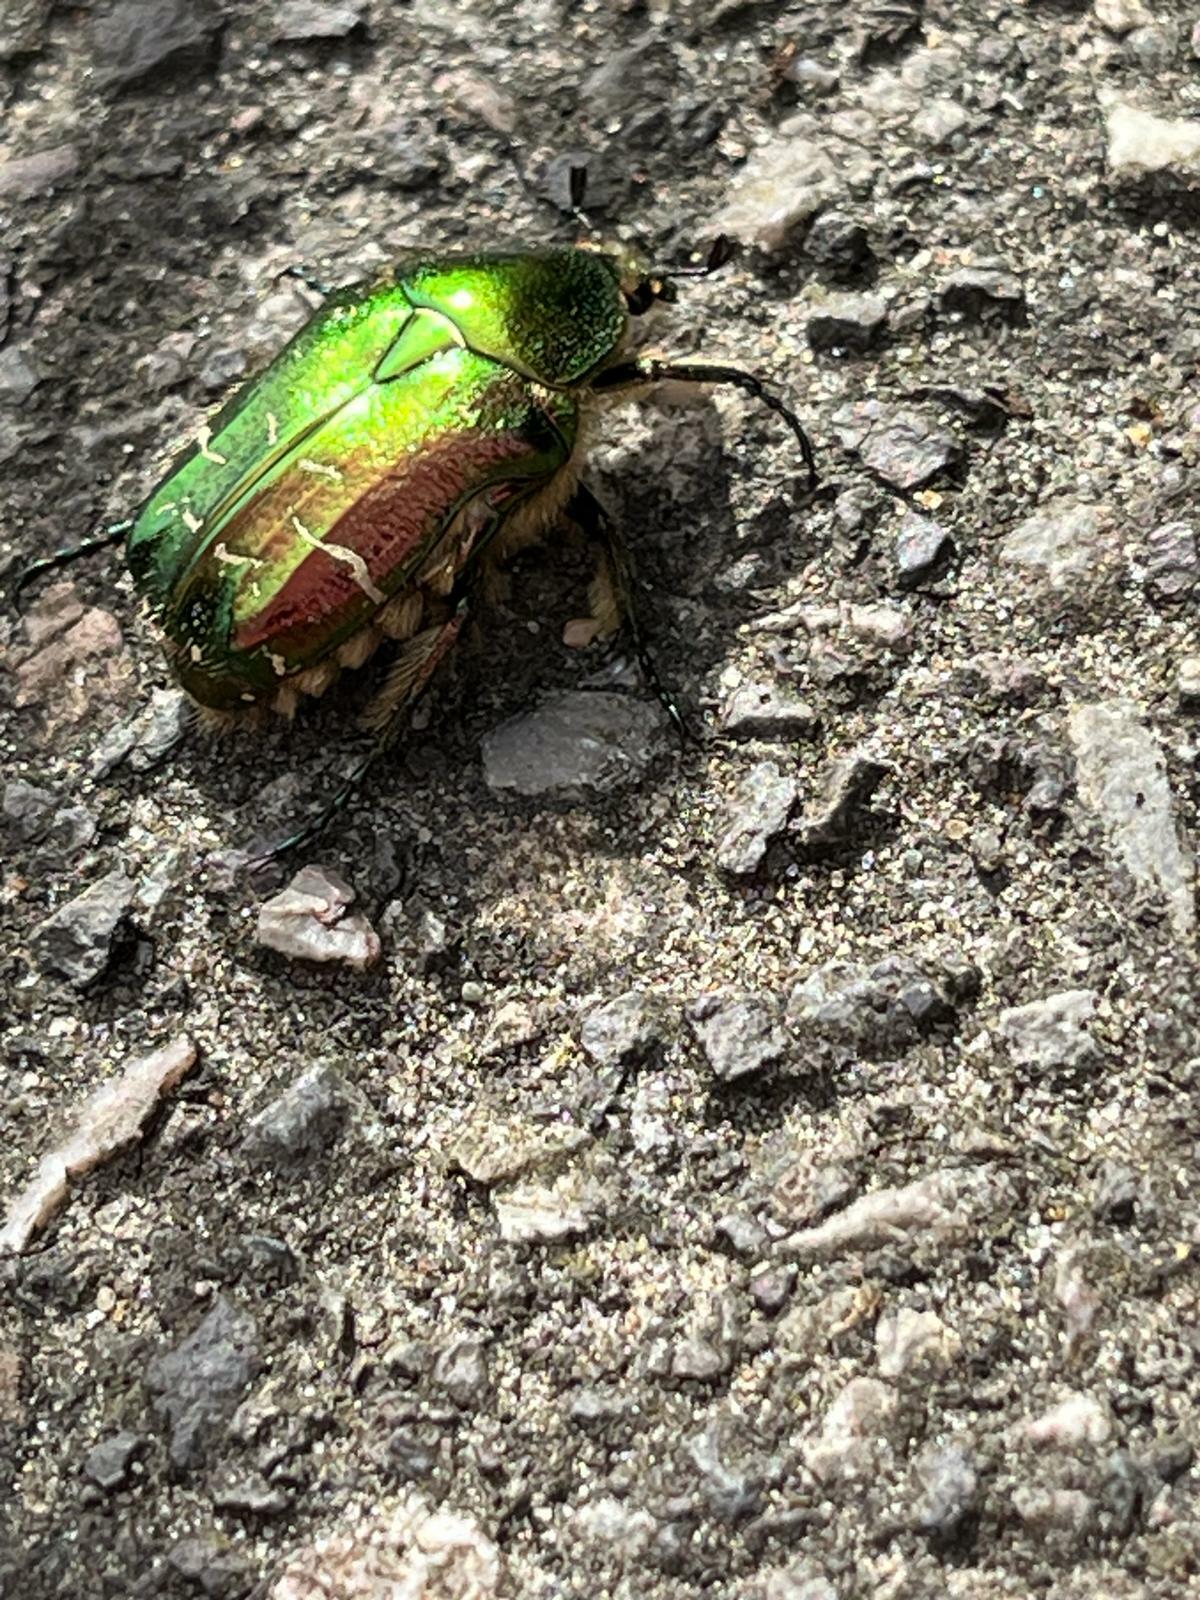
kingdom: Animalia
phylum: Arthropoda
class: Insecta
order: Coleoptera
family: Scarabaeidae
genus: Cetonia
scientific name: Cetonia aurata
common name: Rose chafer
